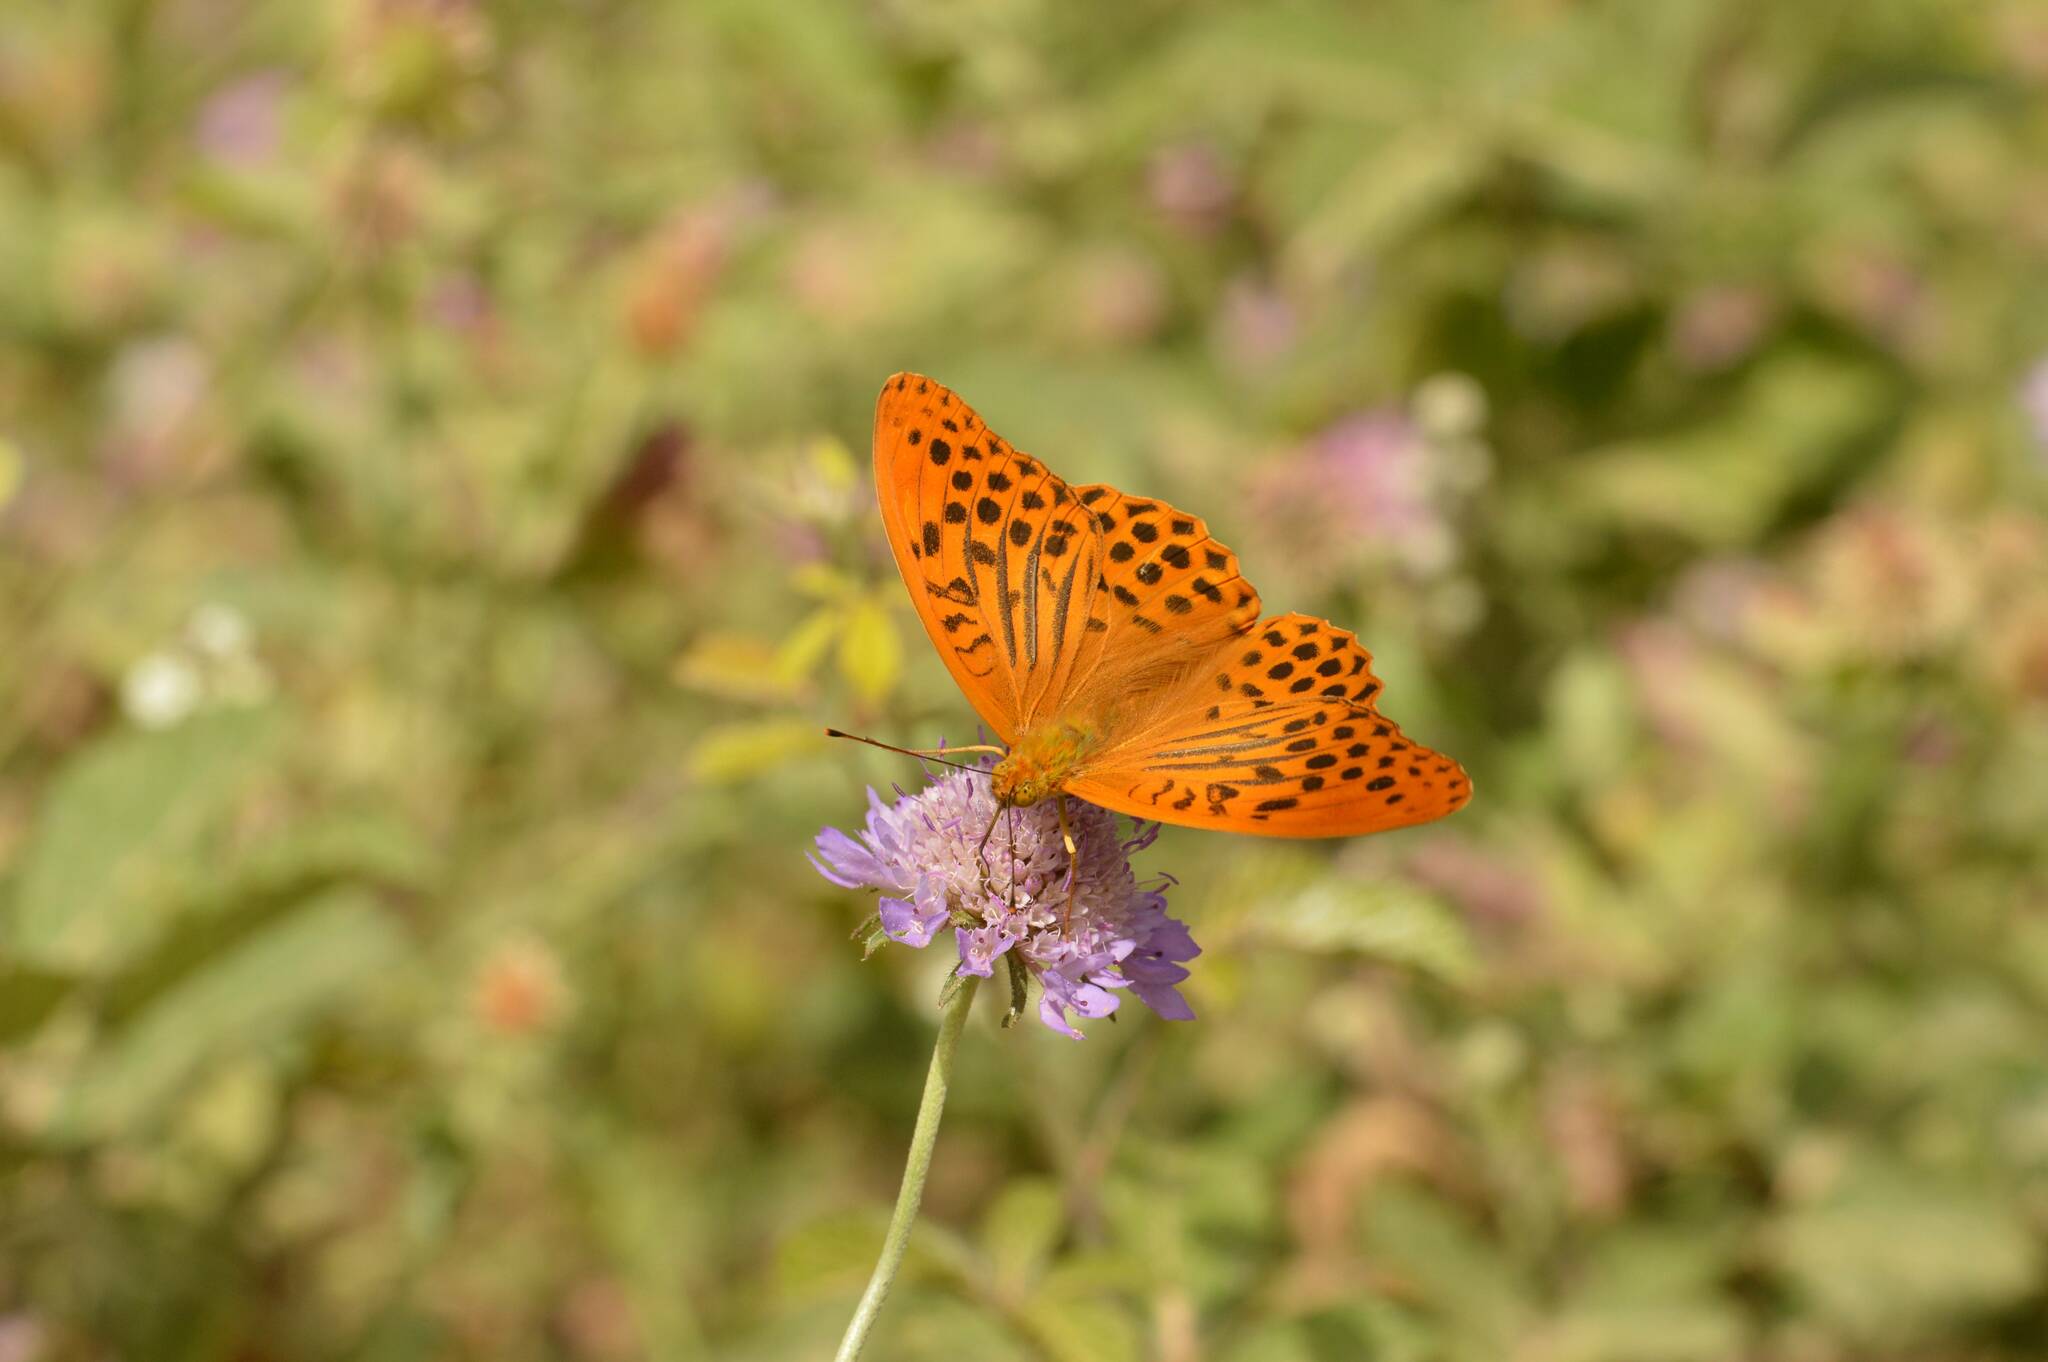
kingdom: Animalia
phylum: Arthropoda
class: Insecta
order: Lepidoptera
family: Nymphalidae
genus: Argynnis
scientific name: Argynnis paphia
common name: Silver-washed fritillary
